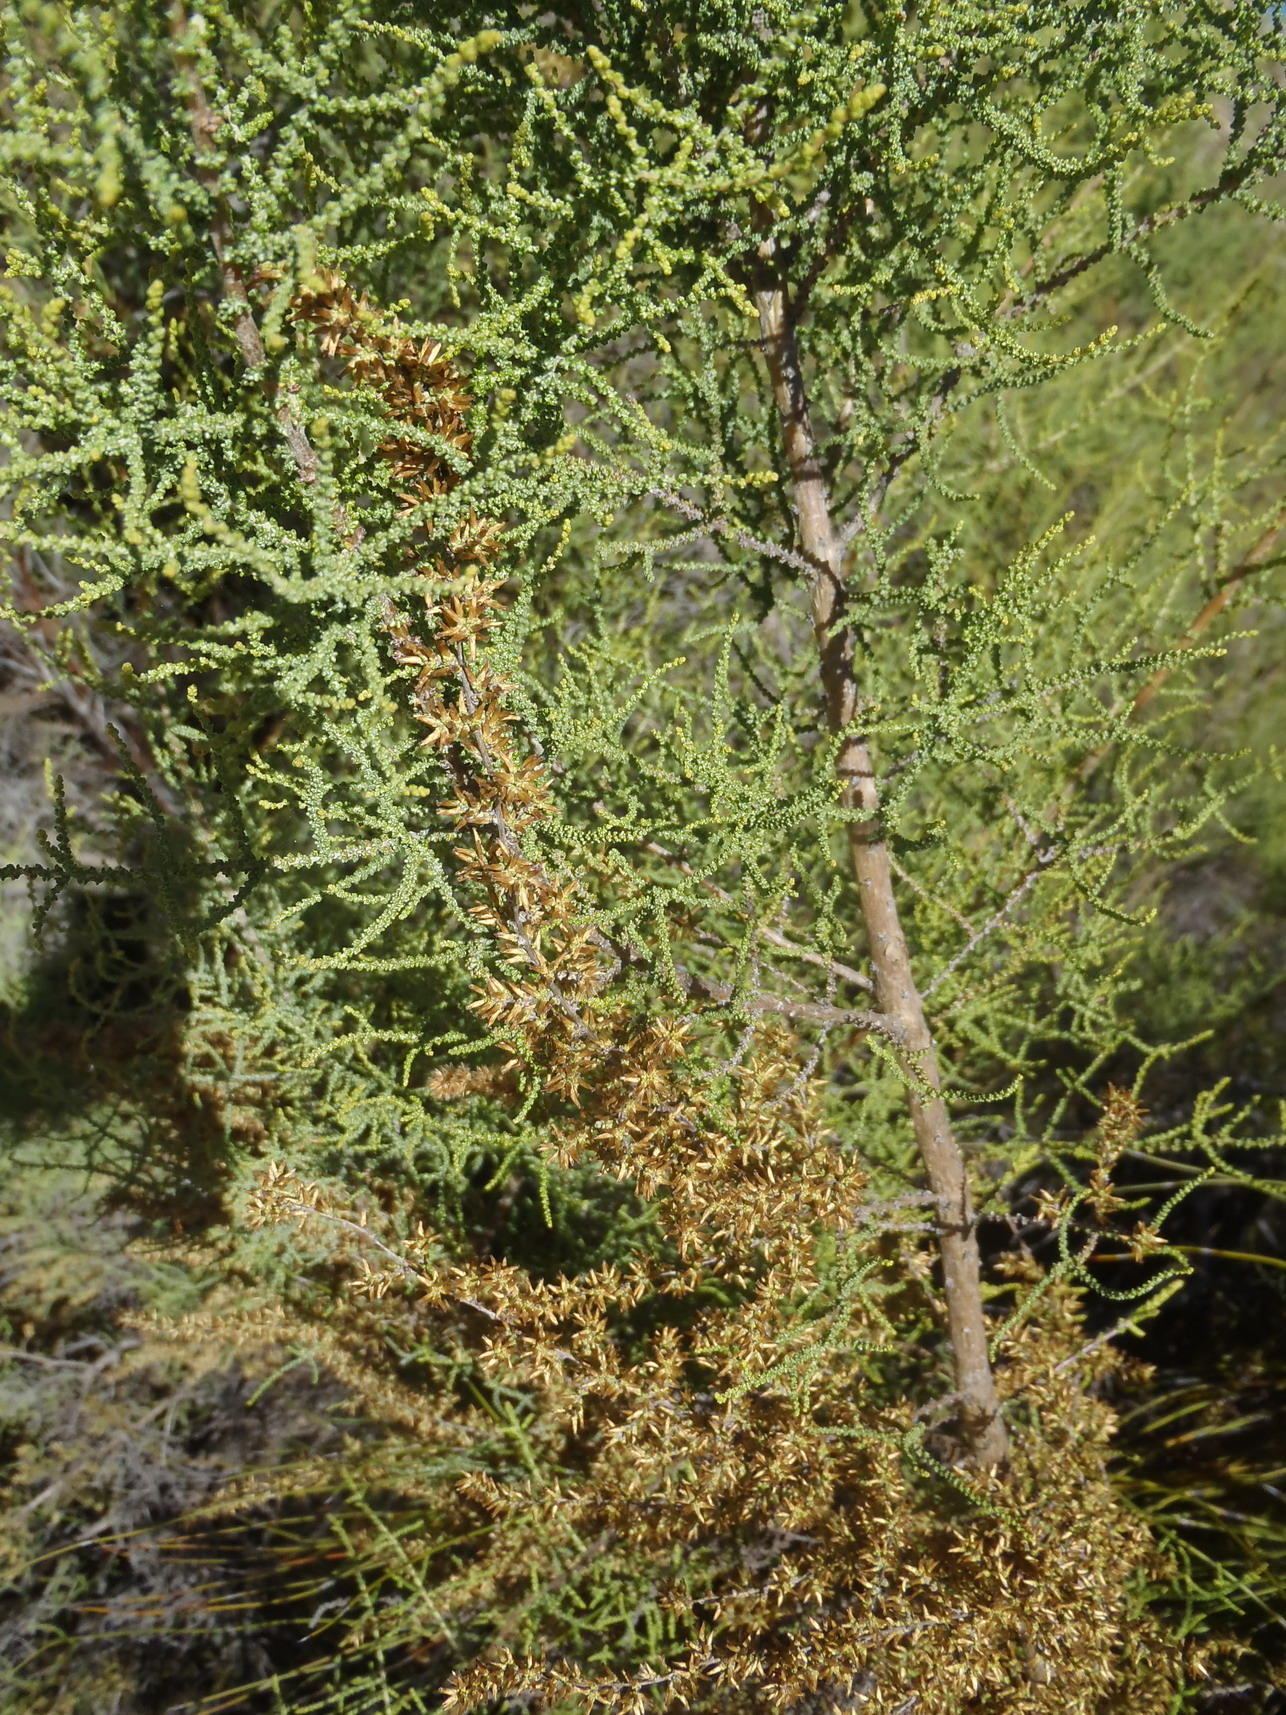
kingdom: Plantae
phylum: Tracheophyta
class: Magnoliopsida
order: Asterales
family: Asteraceae
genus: Seriphium
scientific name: Seriphium plumosum
